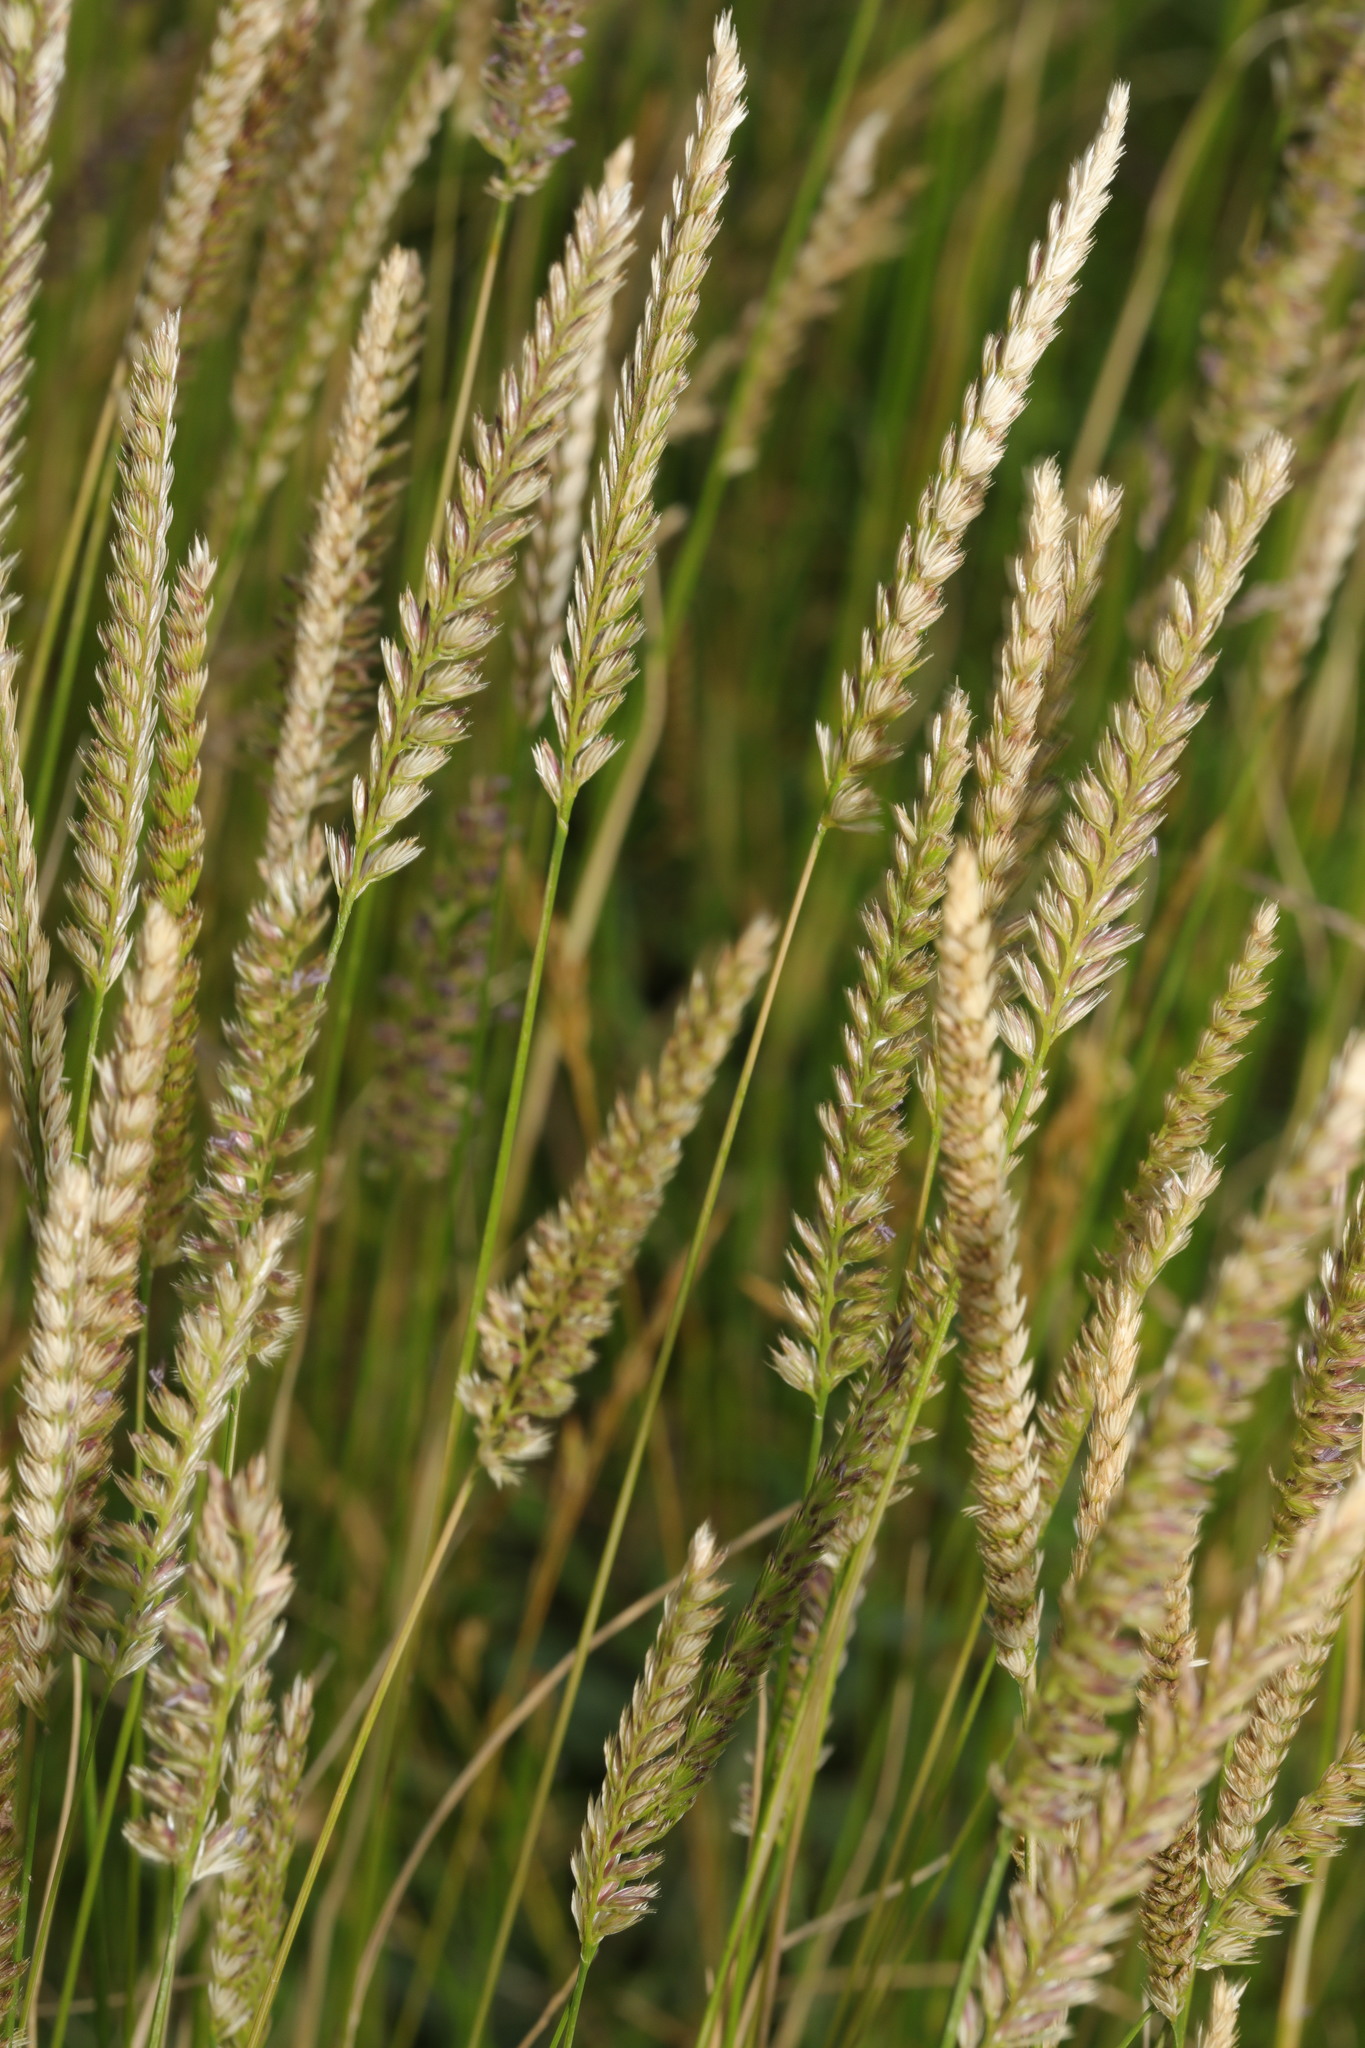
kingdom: Plantae
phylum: Tracheophyta
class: Liliopsida
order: Poales
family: Poaceae
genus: Cynosurus
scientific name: Cynosurus cristatus
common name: Crested dog's-tail
